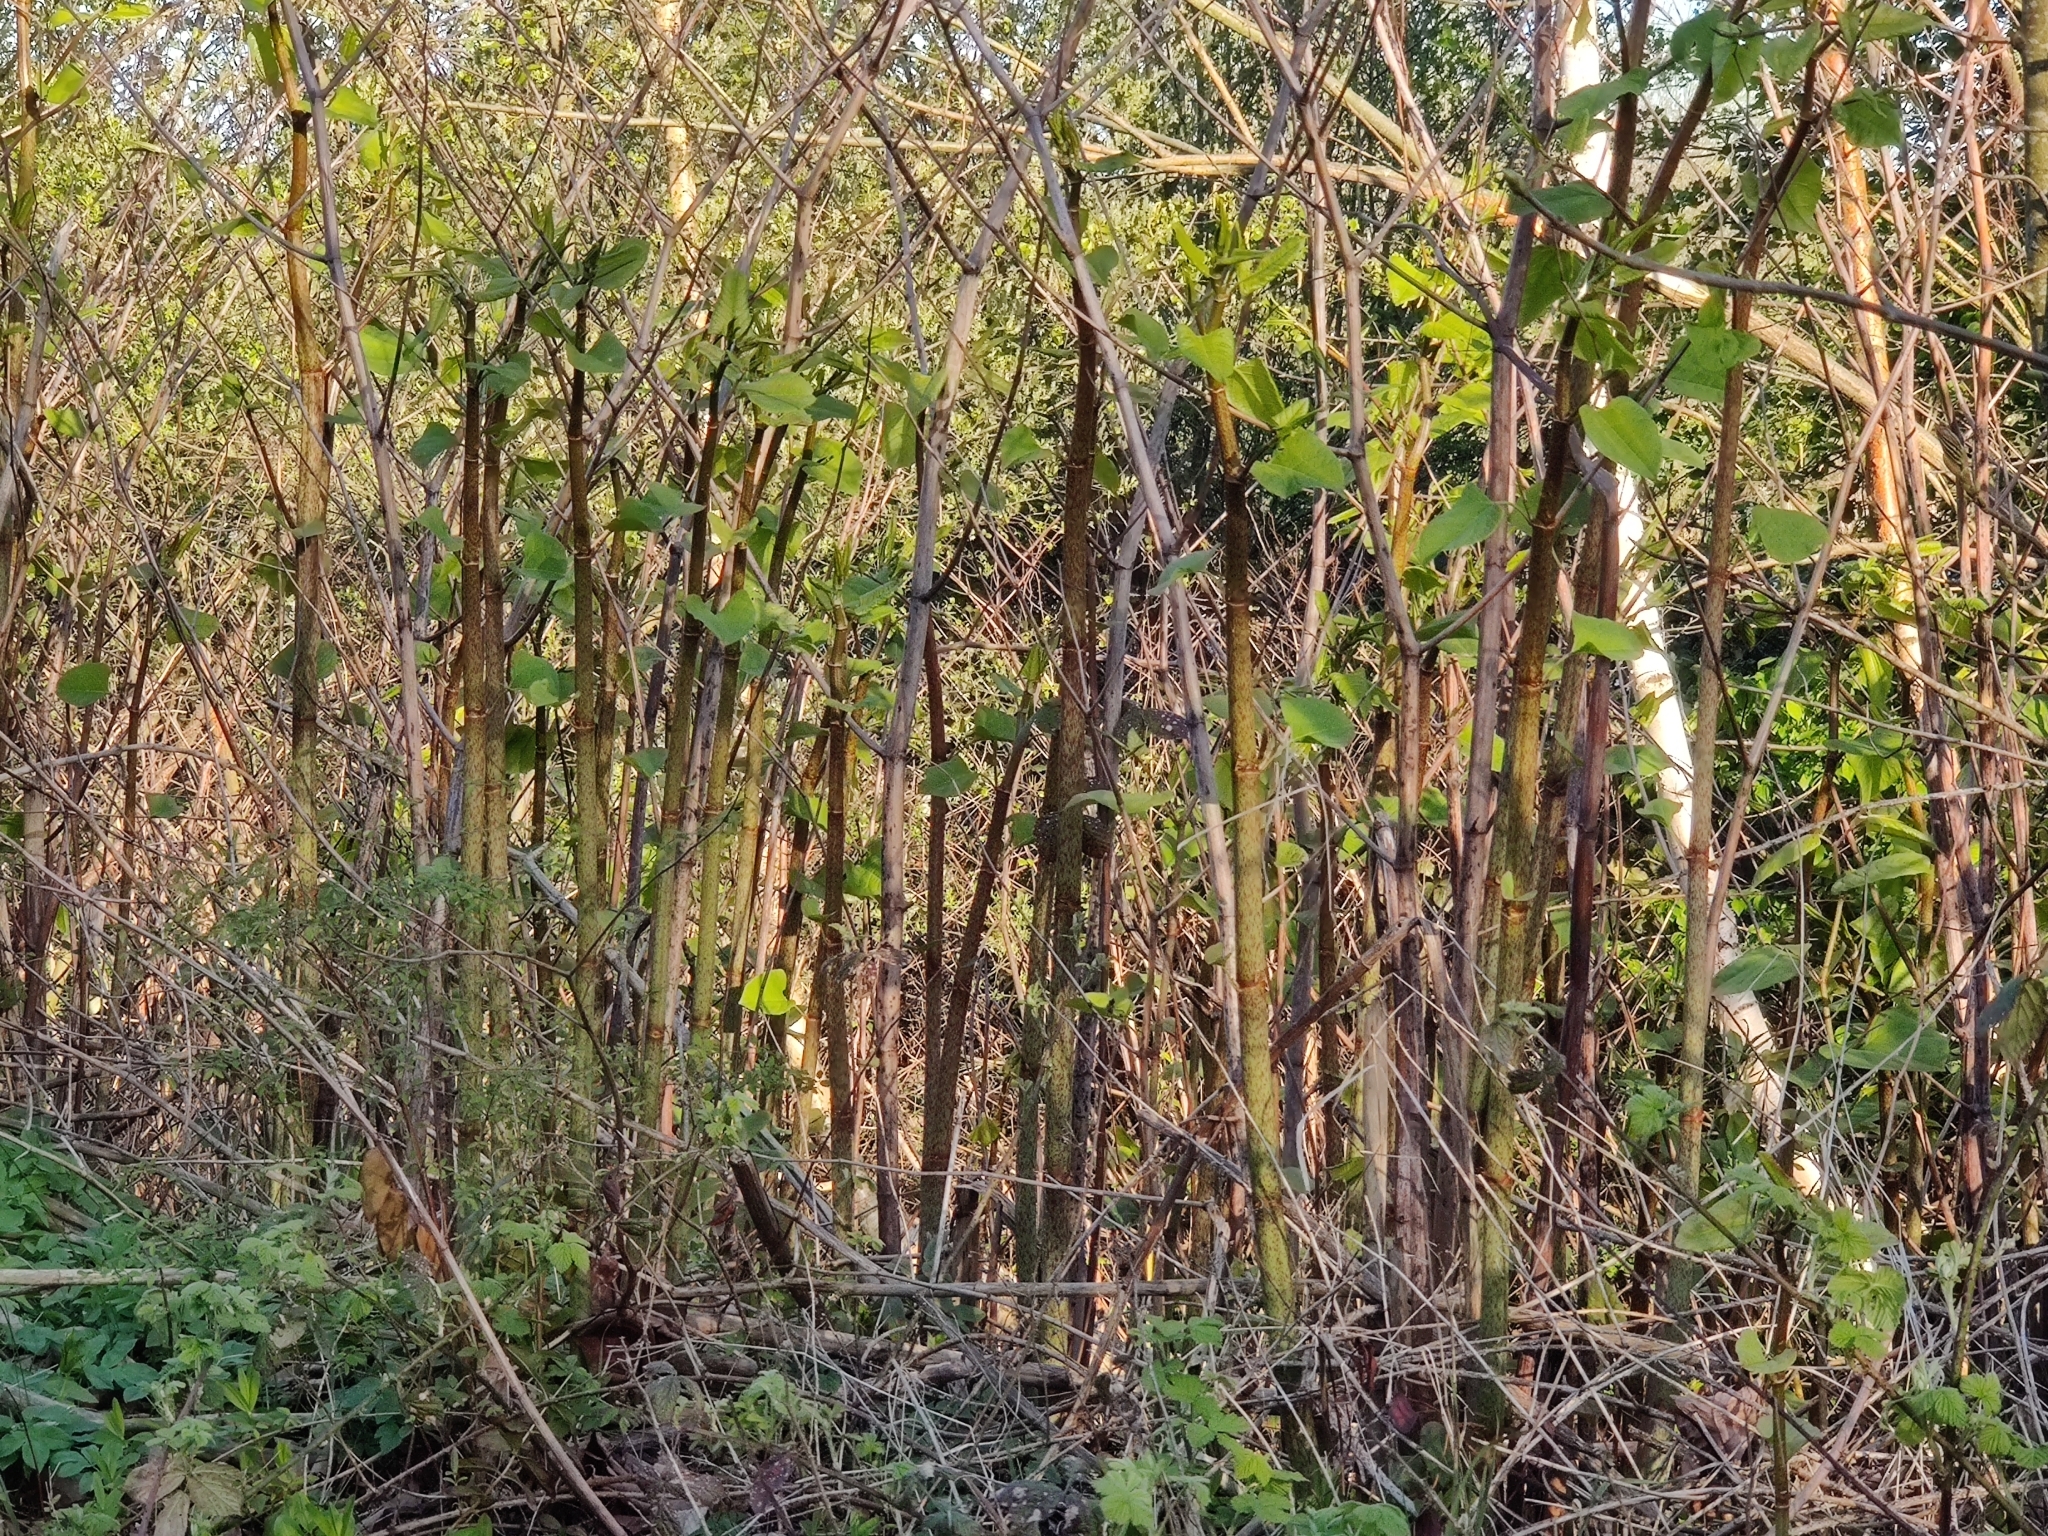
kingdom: Plantae
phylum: Tracheophyta
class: Magnoliopsida
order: Caryophyllales
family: Polygonaceae
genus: Reynoutria
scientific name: Reynoutria japonica
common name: Japanese knotweed
